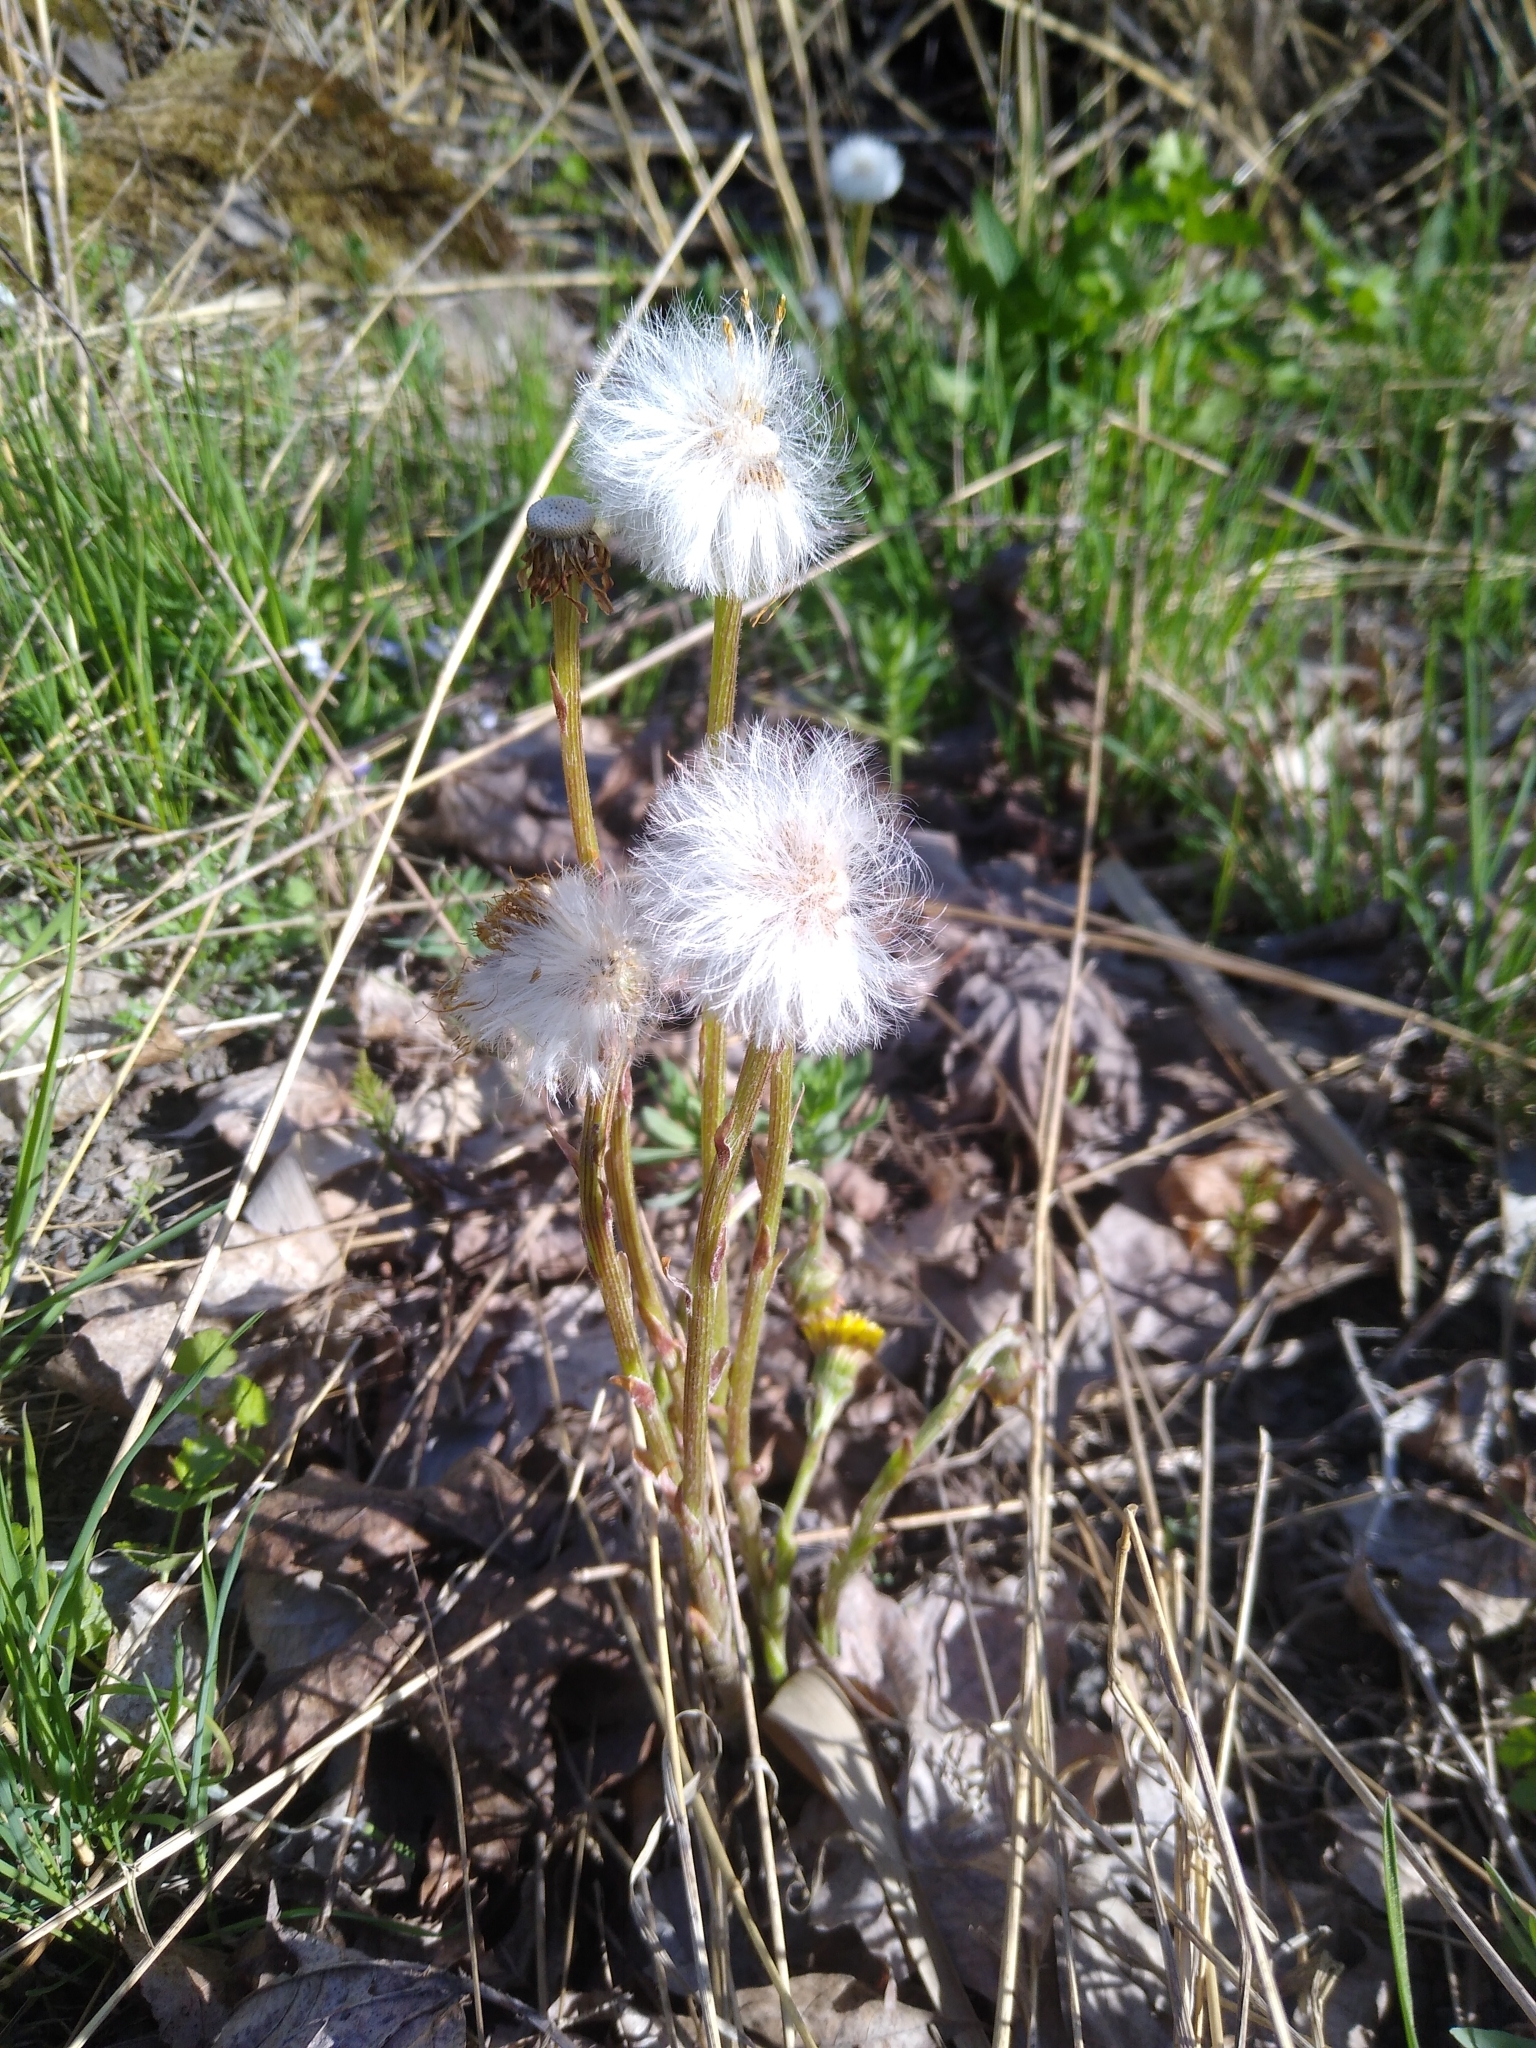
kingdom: Plantae
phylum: Tracheophyta
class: Magnoliopsida
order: Asterales
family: Asteraceae
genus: Tussilago
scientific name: Tussilago farfara
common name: Coltsfoot
